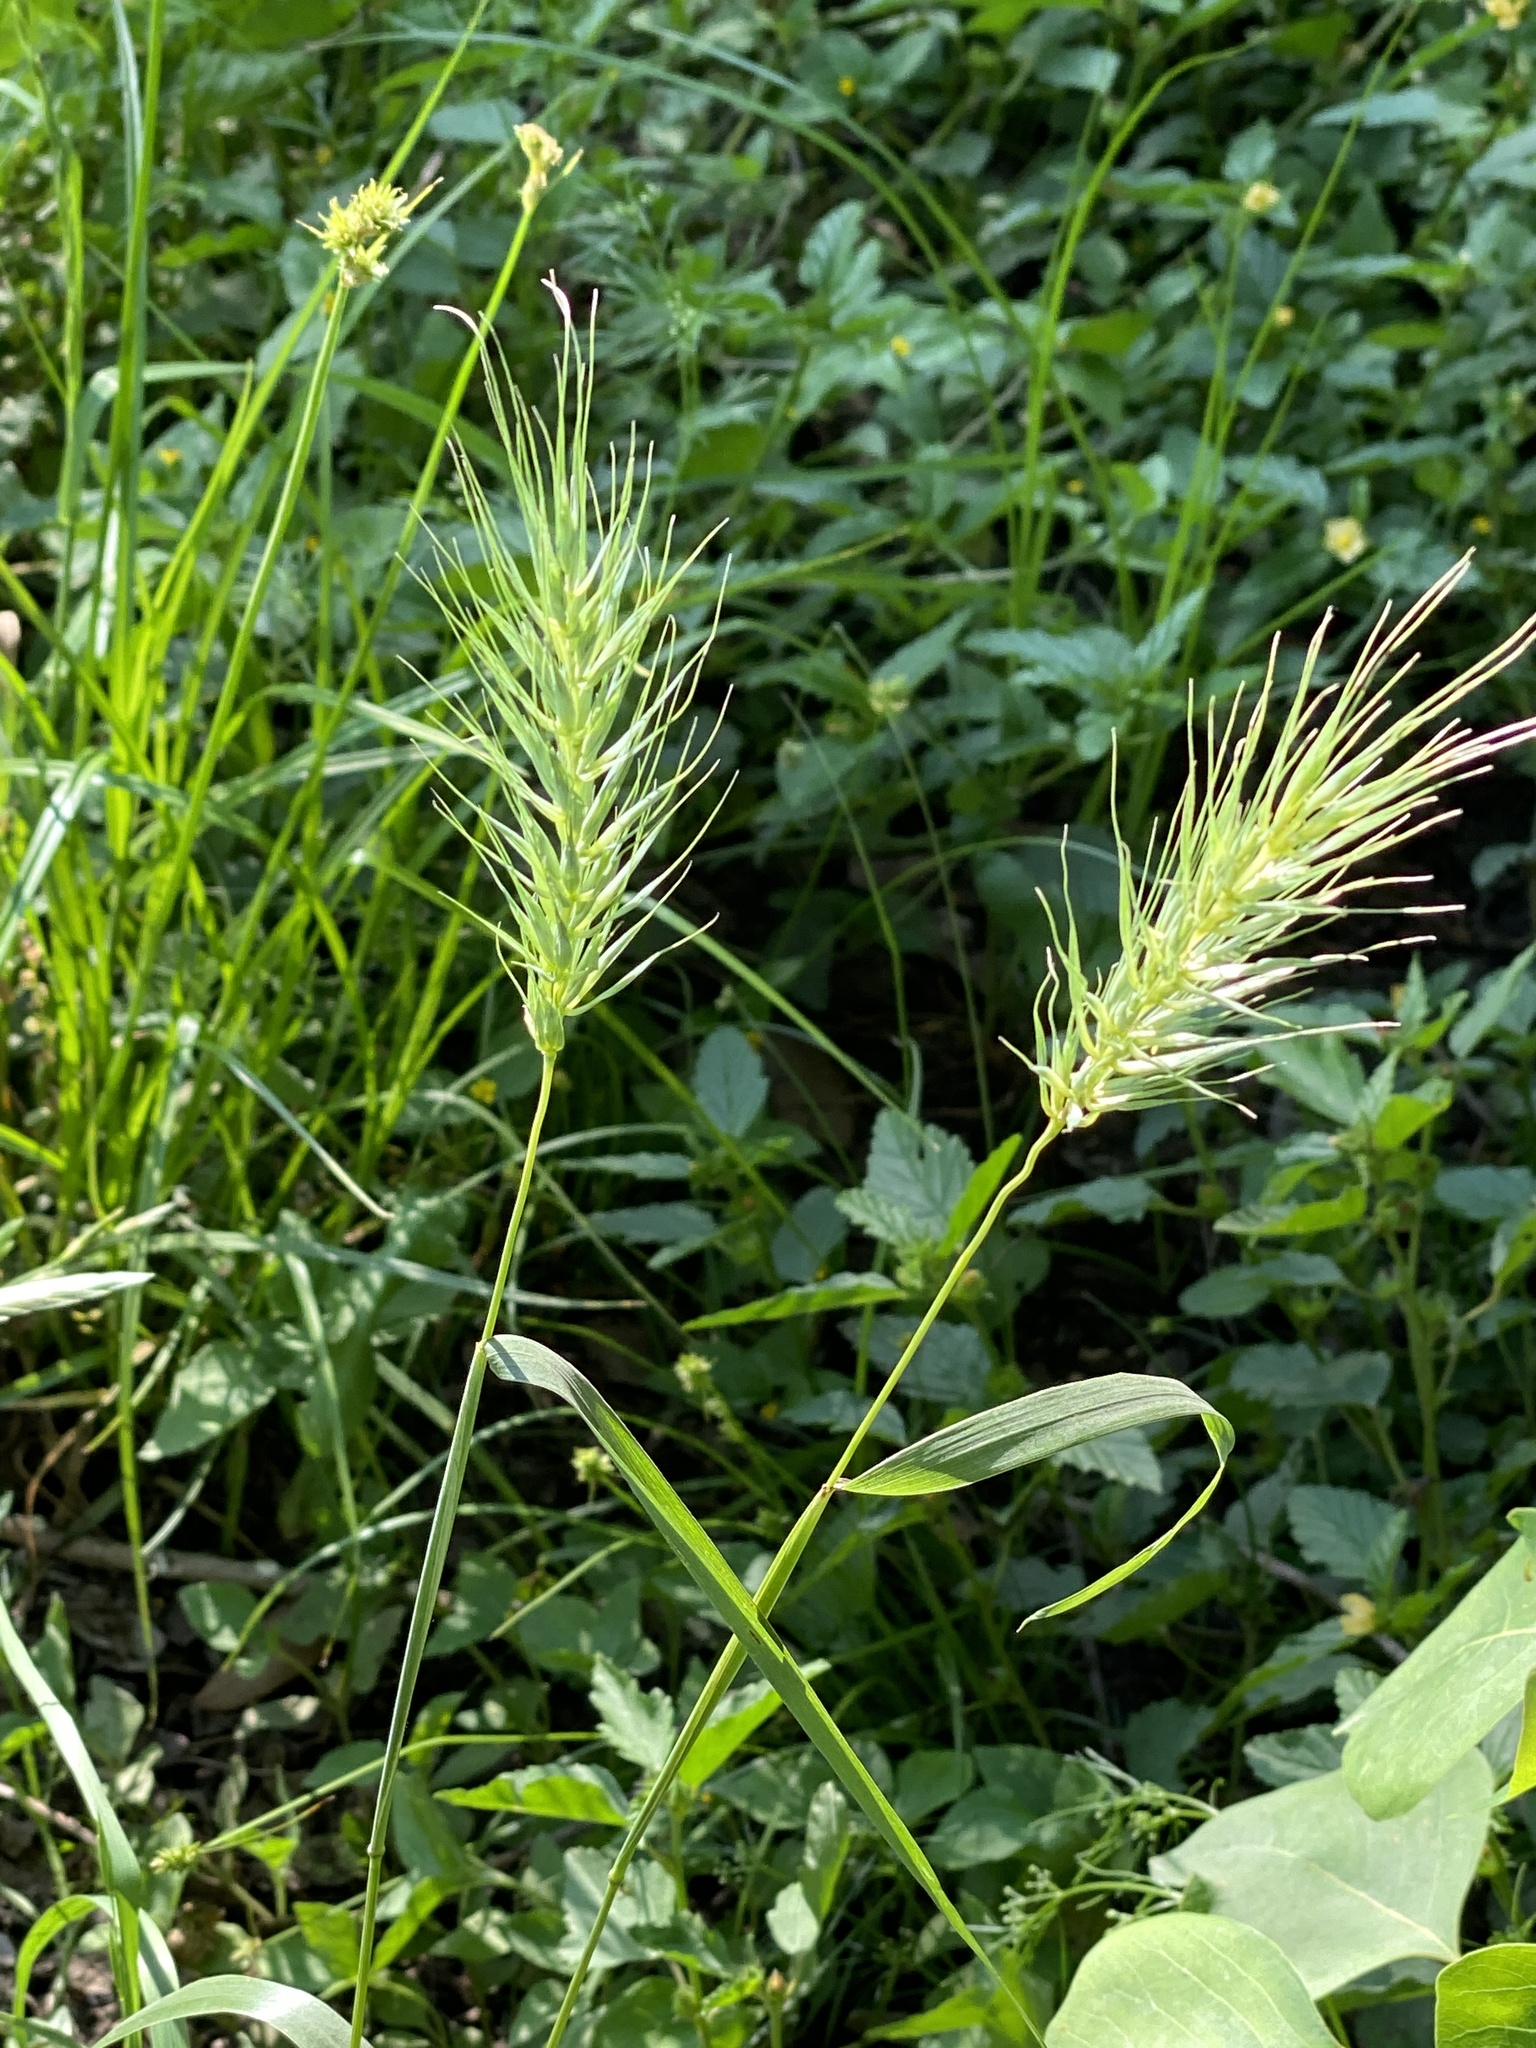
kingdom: Plantae
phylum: Tracheophyta
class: Liliopsida
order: Poales
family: Poaceae
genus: Elymus
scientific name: Elymus macgregorii
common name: Early wild rye
